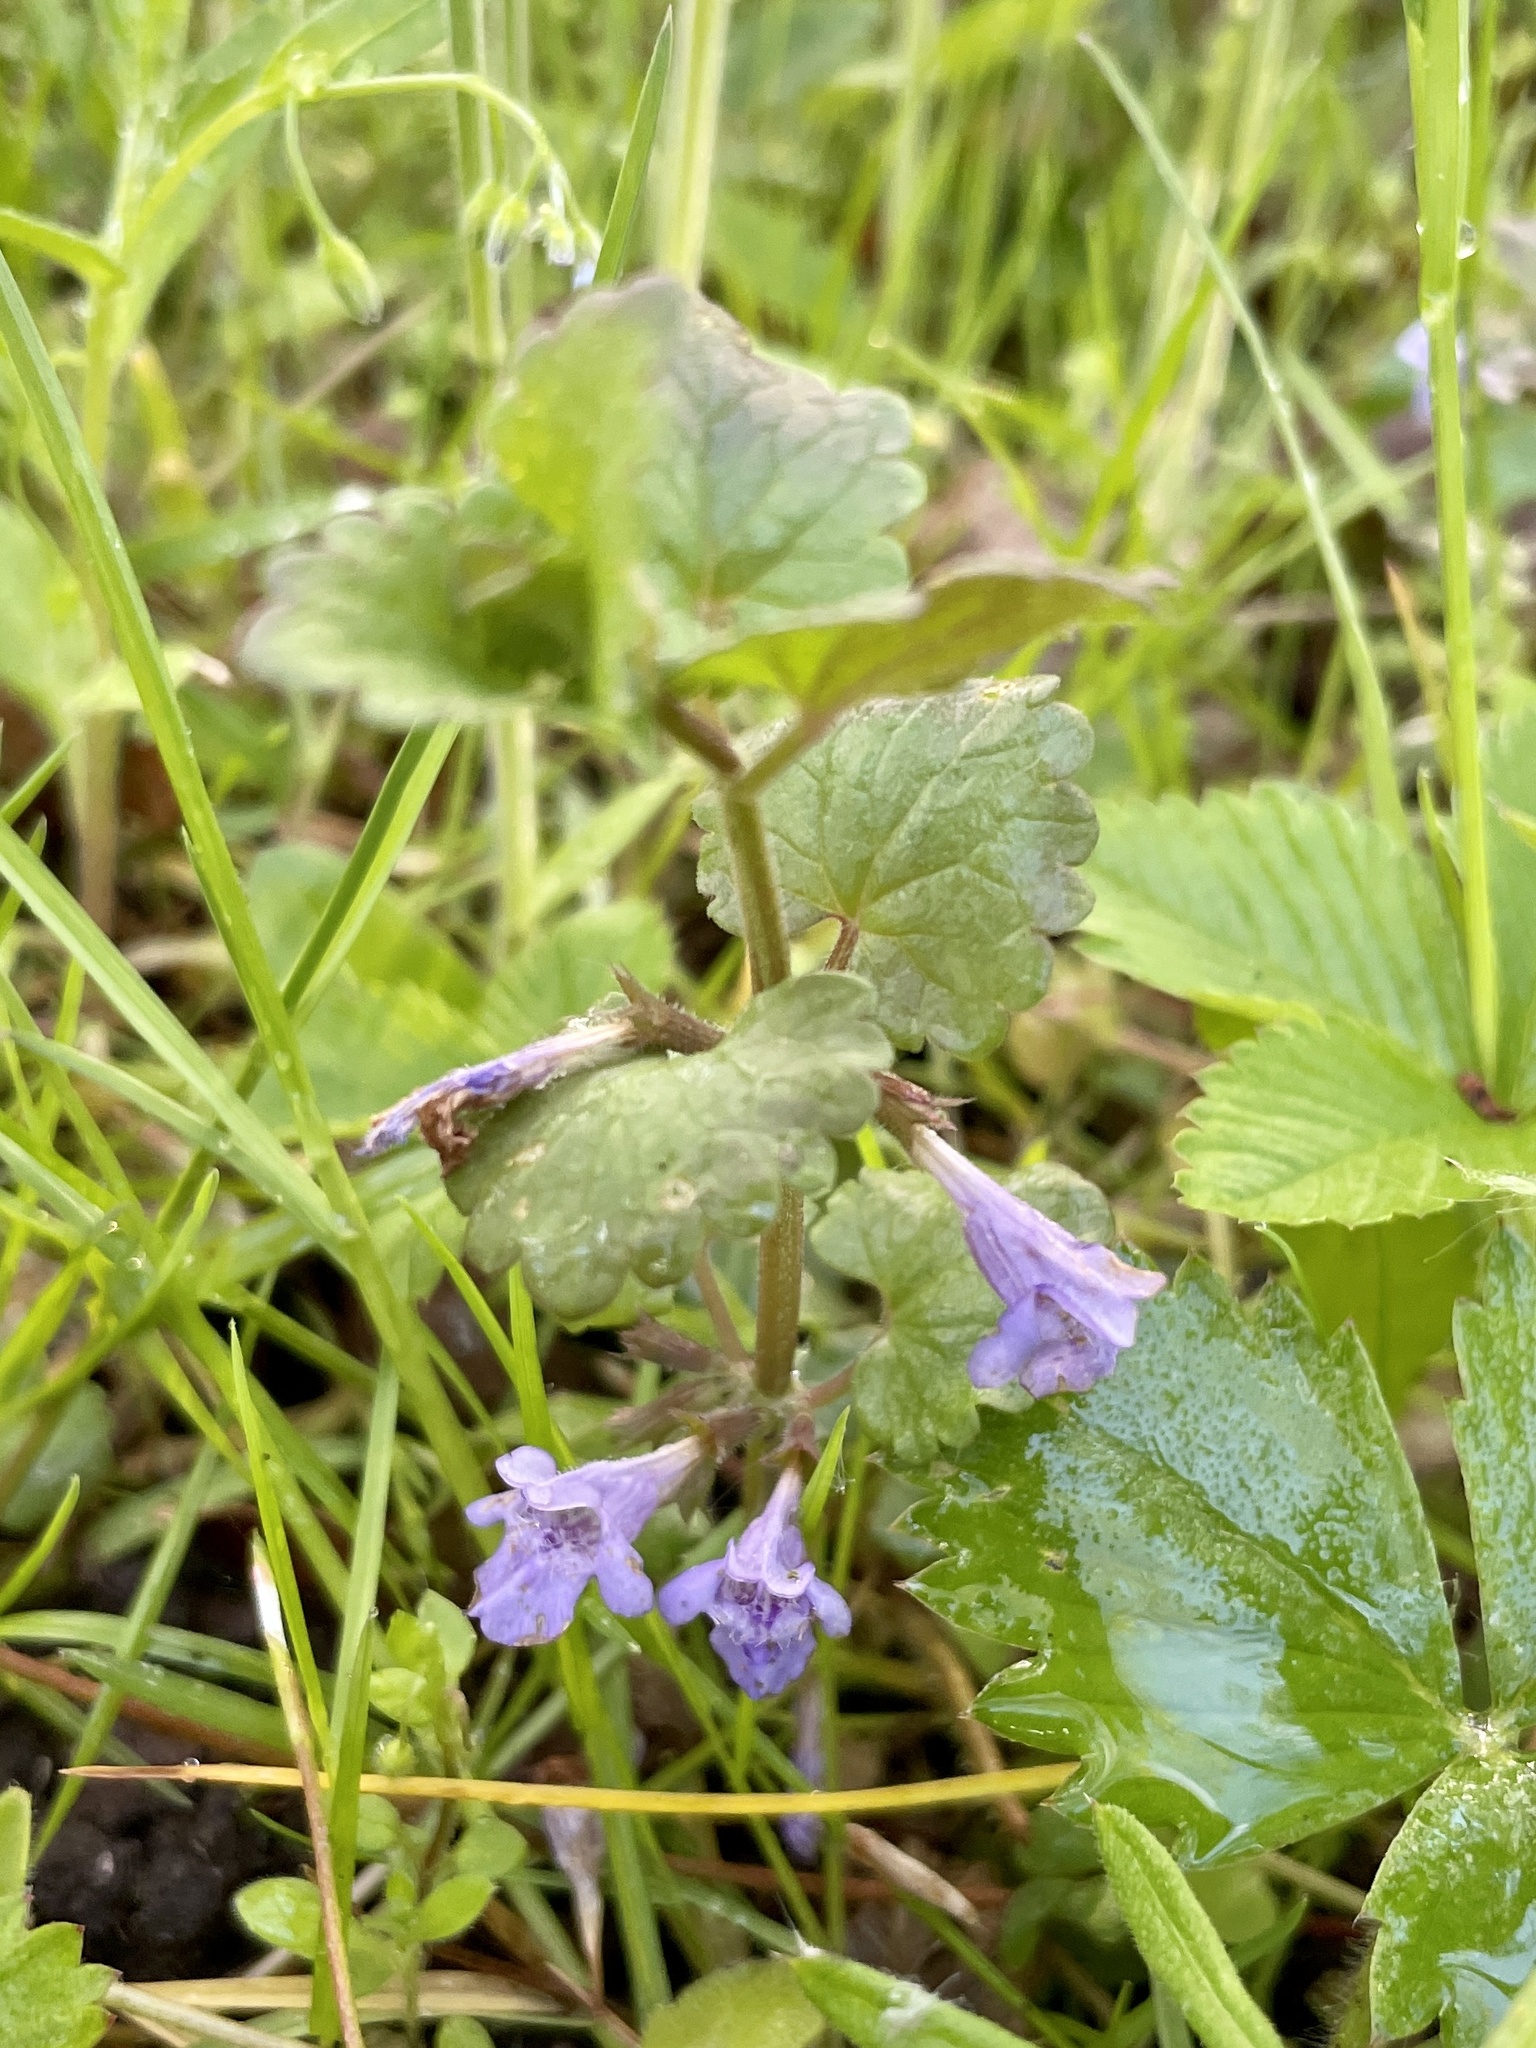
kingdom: Plantae
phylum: Tracheophyta
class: Magnoliopsida
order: Lamiales
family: Lamiaceae
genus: Glechoma
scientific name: Glechoma hederacea
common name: Ground ivy
